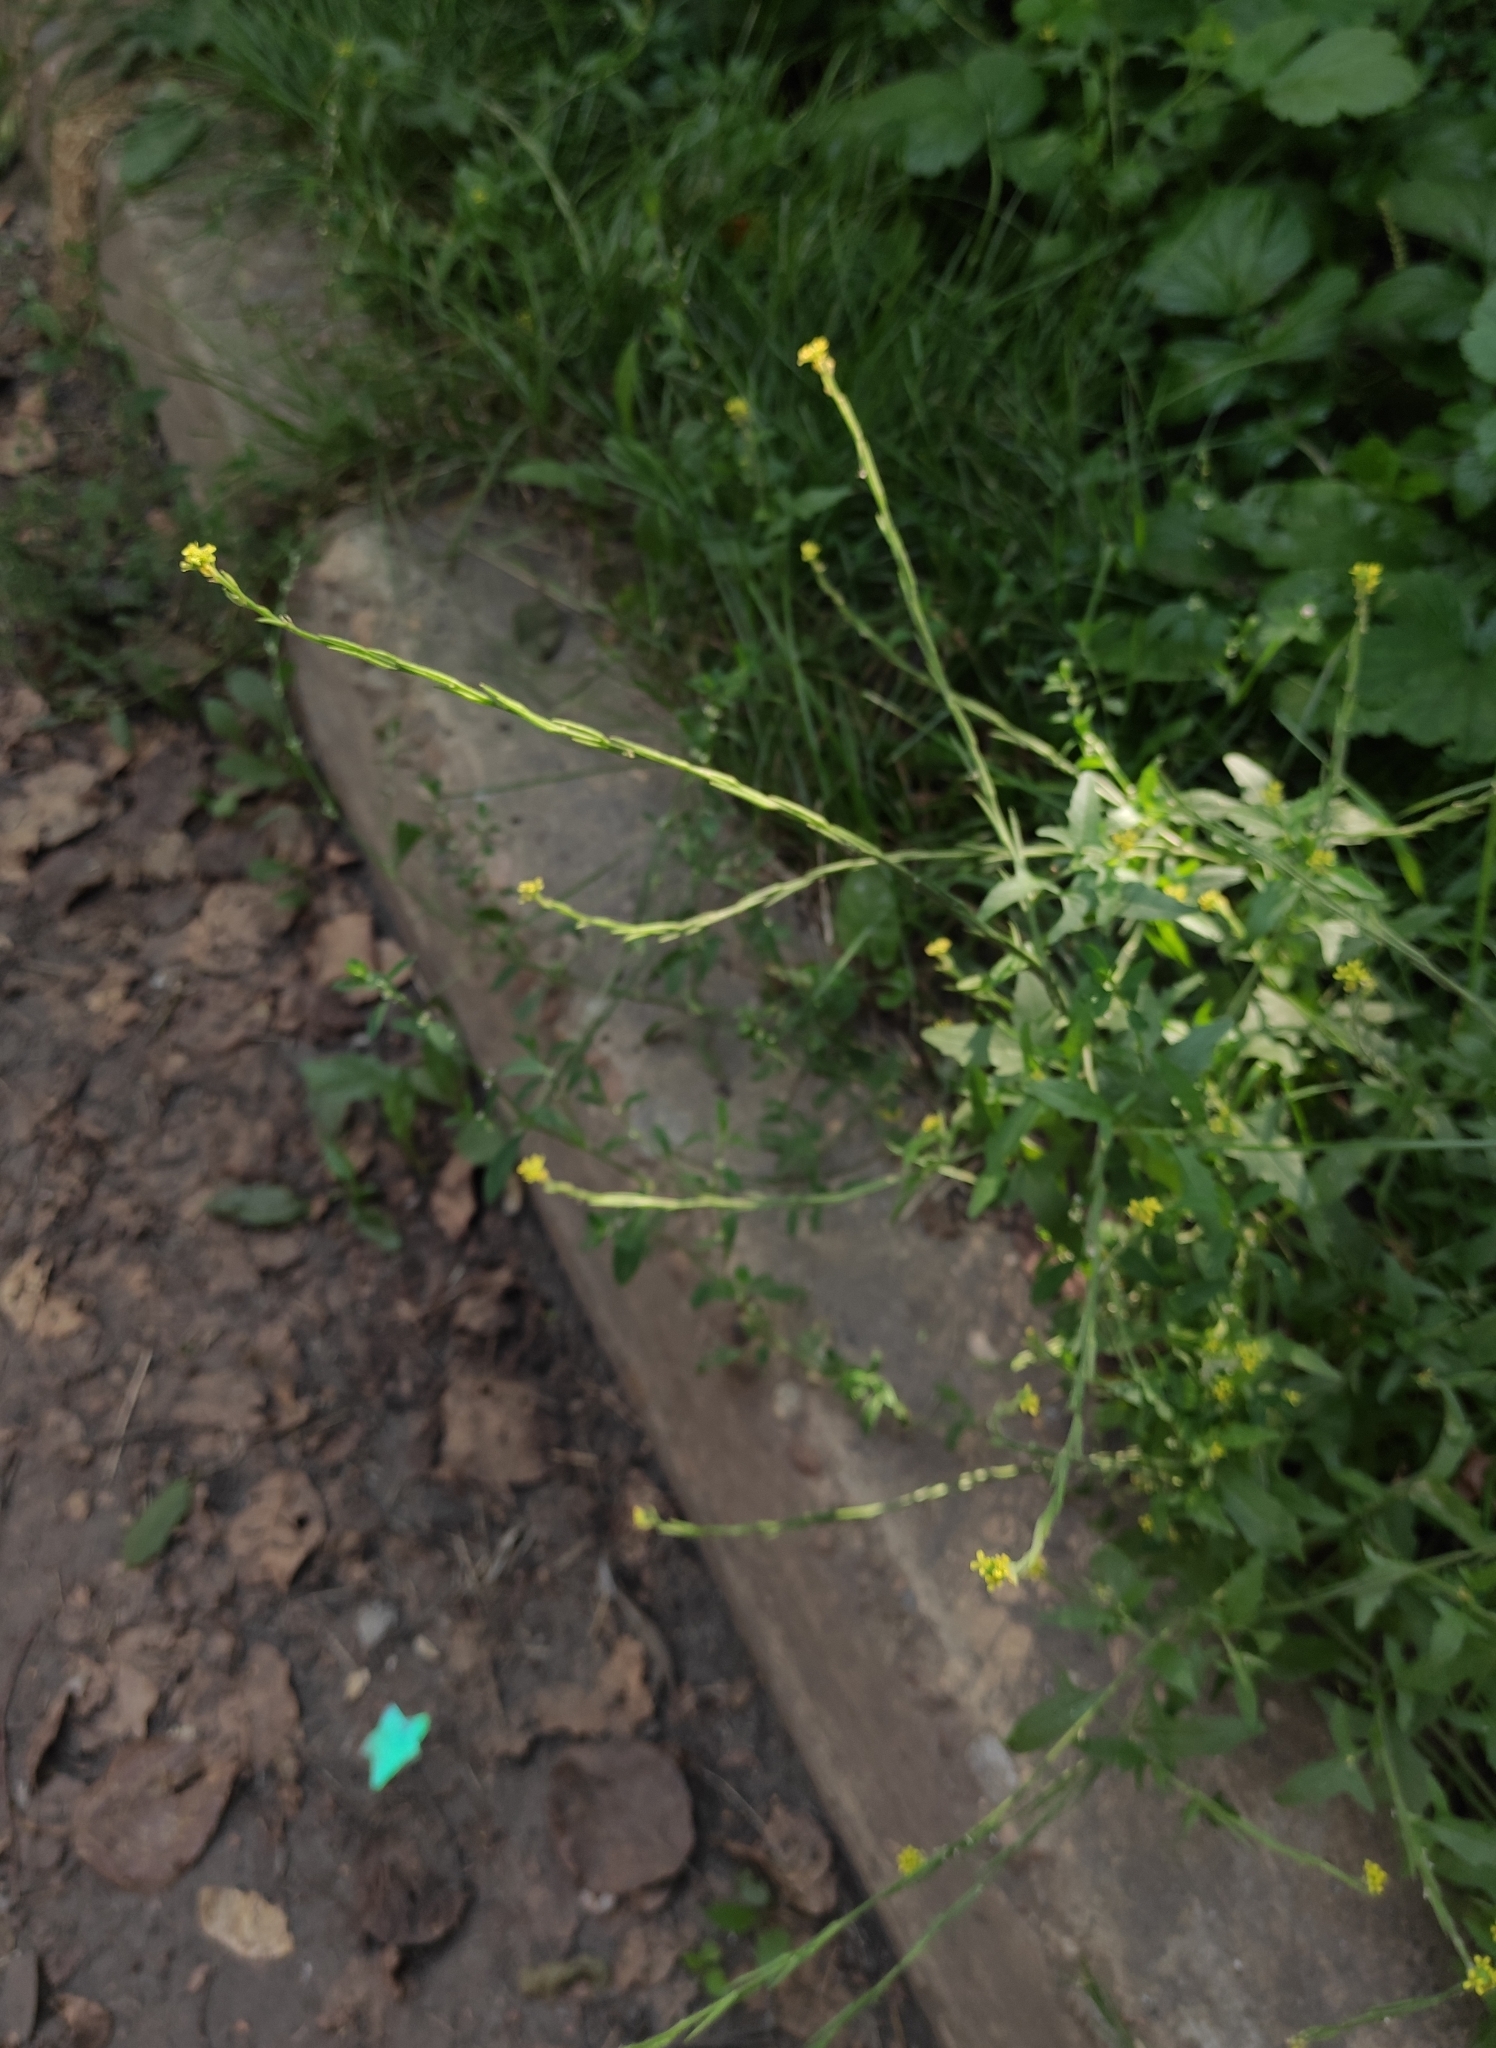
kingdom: Plantae
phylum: Tracheophyta
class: Magnoliopsida
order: Brassicales
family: Brassicaceae
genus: Sisymbrium
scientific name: Sisymbrium officinale
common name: Hedge mustard
